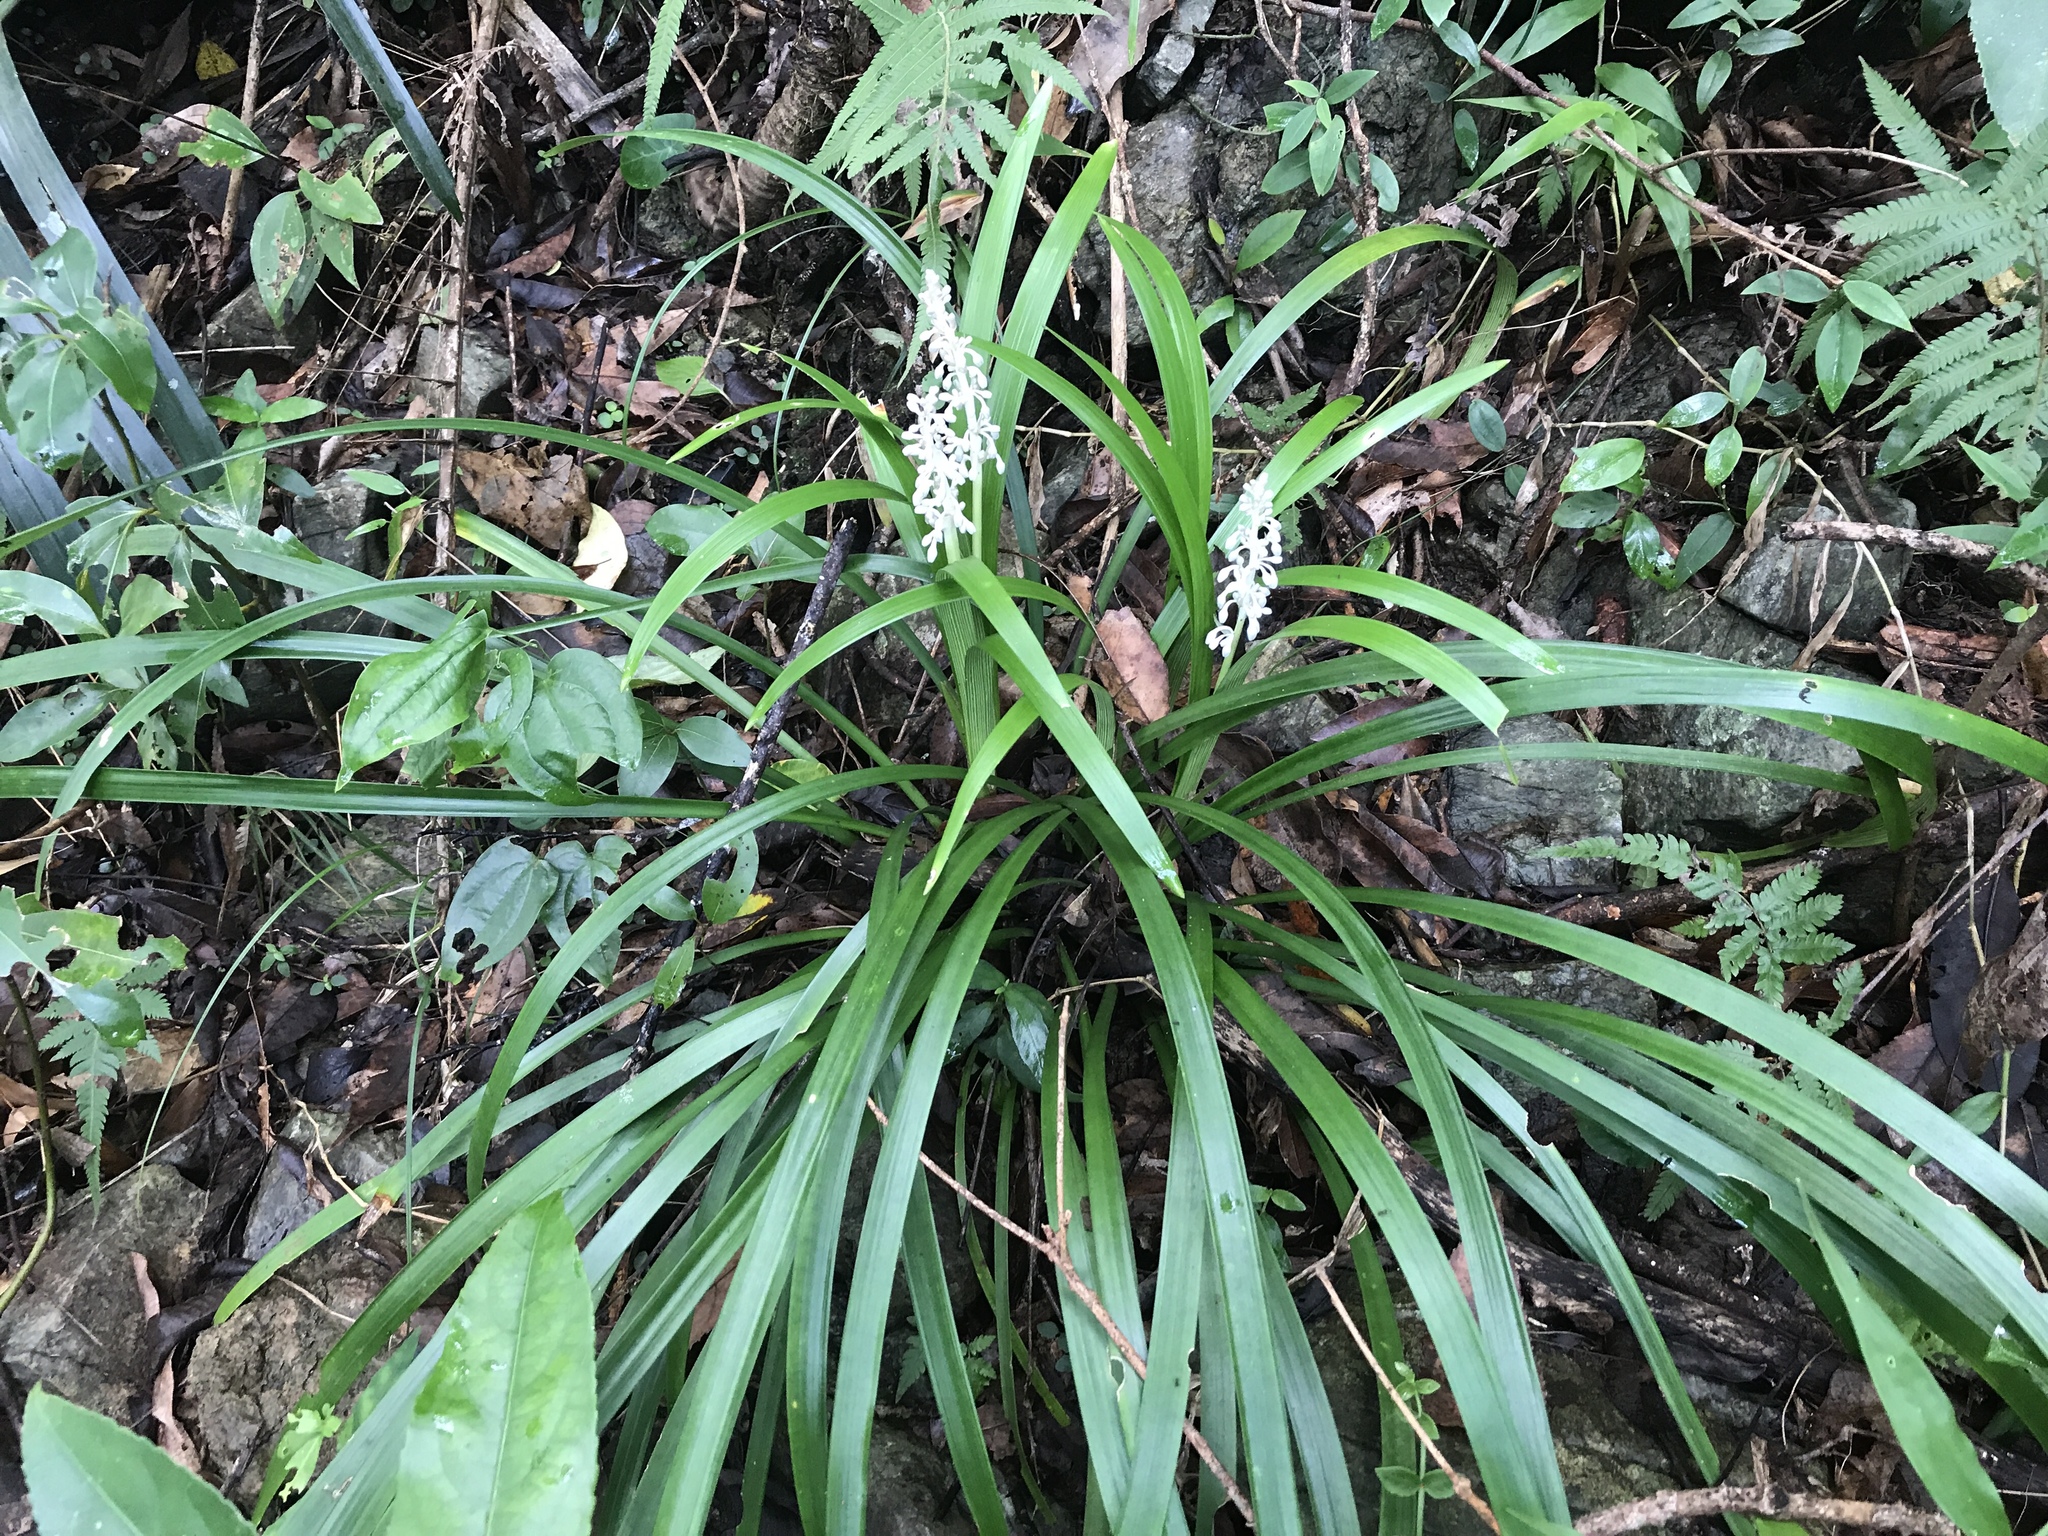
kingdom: Plantae
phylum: Tracheophyta
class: Liliopsida
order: Asparagales
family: Asparagaceae
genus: Ophiopogon
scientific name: Ophiopogon jaburan
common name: Lilyturf
